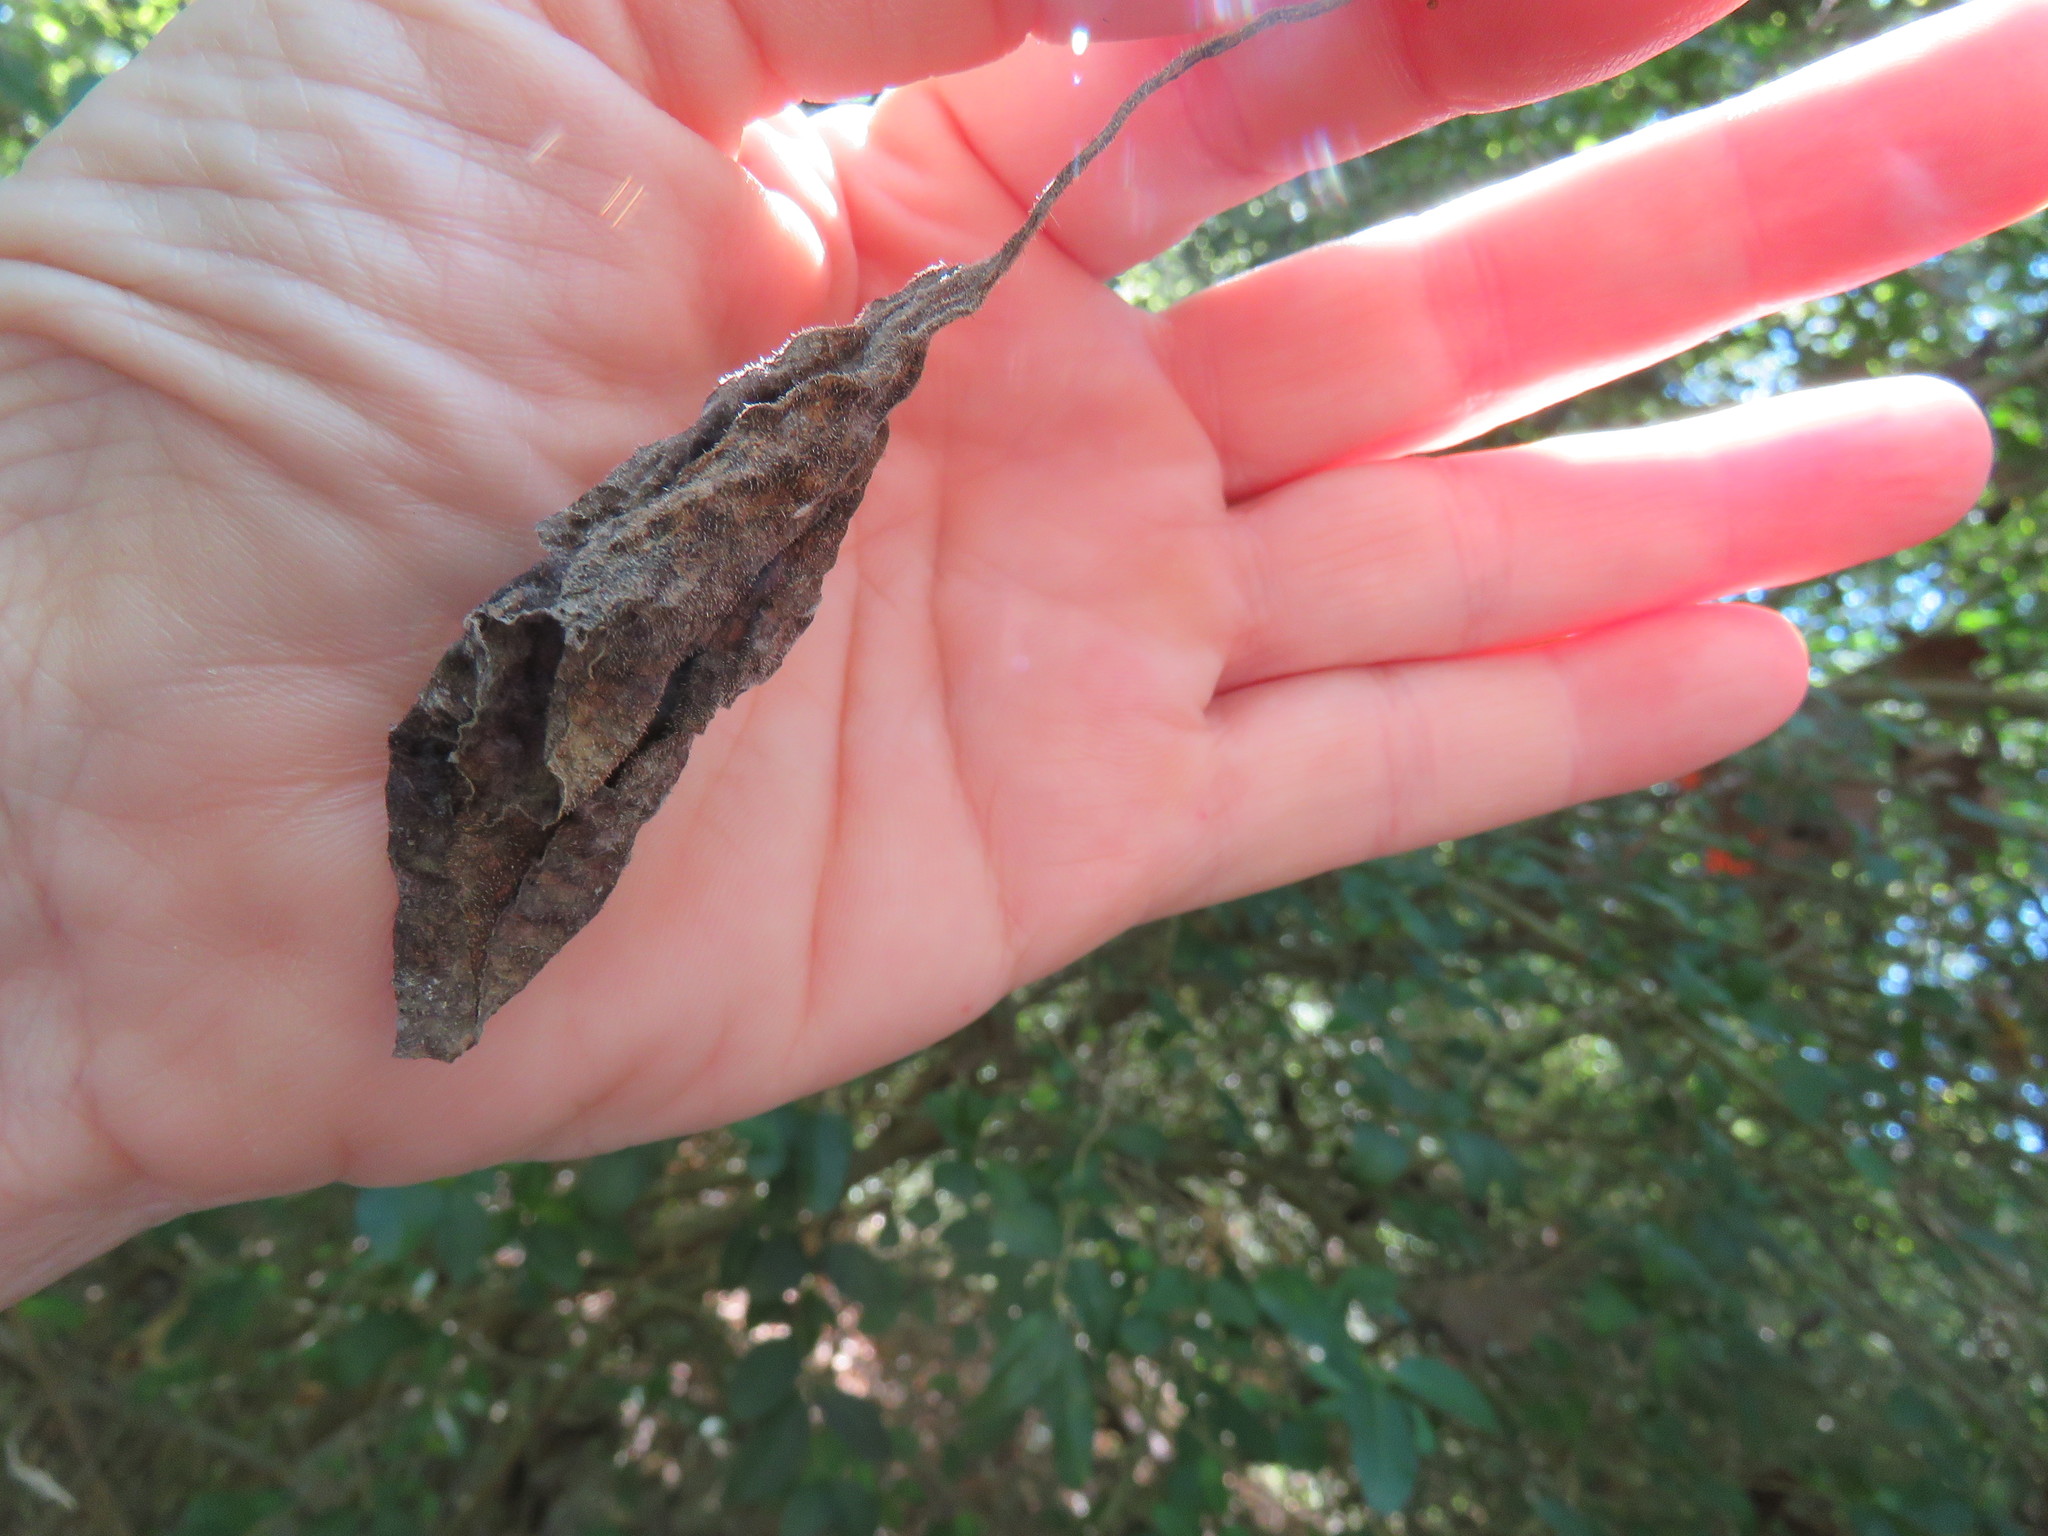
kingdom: Plantae
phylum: Tracheophyta
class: Magnoliopsida
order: Cucurbitales
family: Cucurbitaceae
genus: Cayaponia
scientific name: Cayaponia quinqueloba
